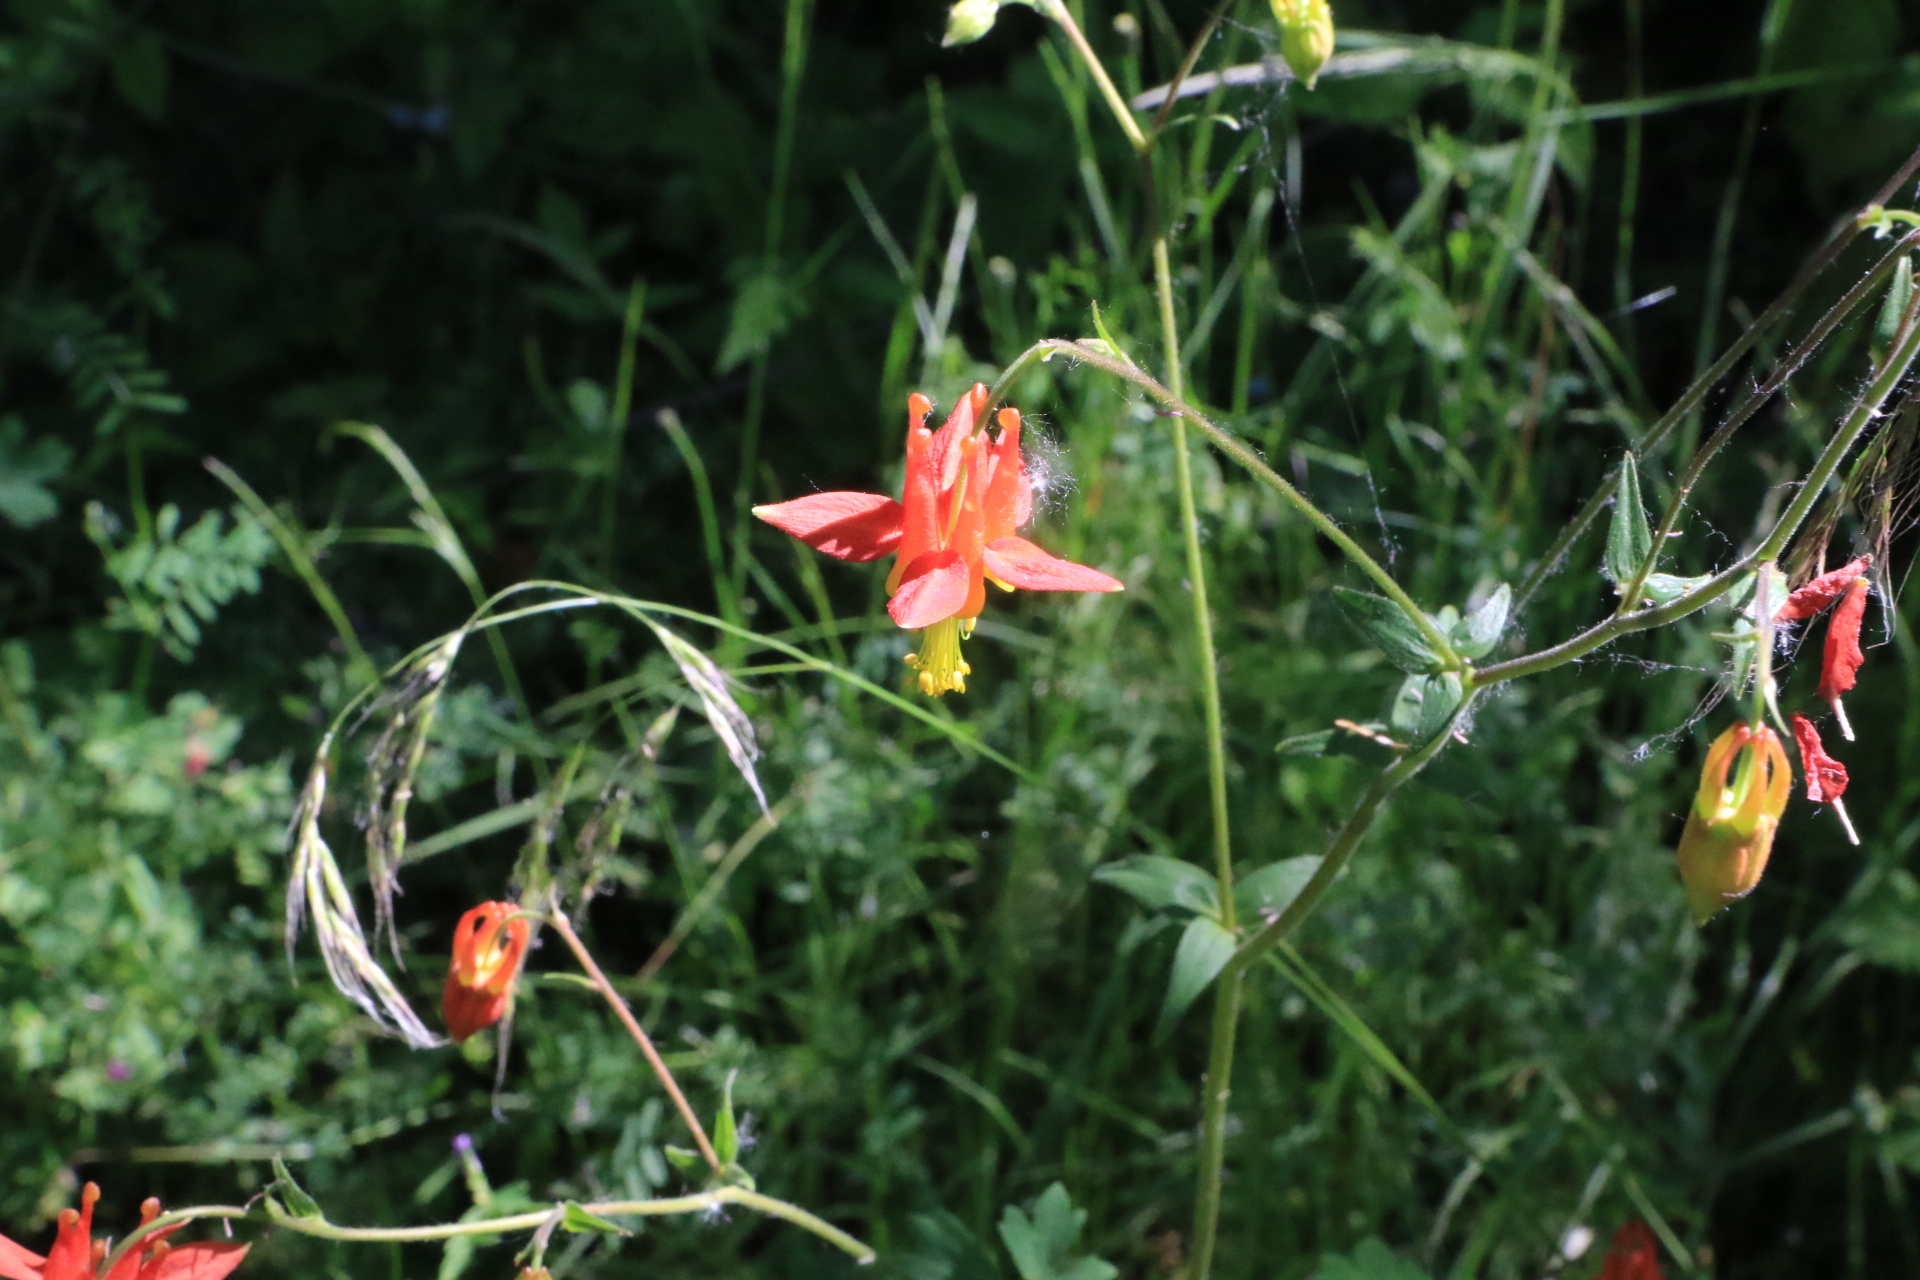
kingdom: Plantae
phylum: Tracheophyta
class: Magnoliopsida
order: Ranunculales
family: Ranunculaceae
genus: Aquilegia
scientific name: Aquilegia formosa
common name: Sitka columbine
